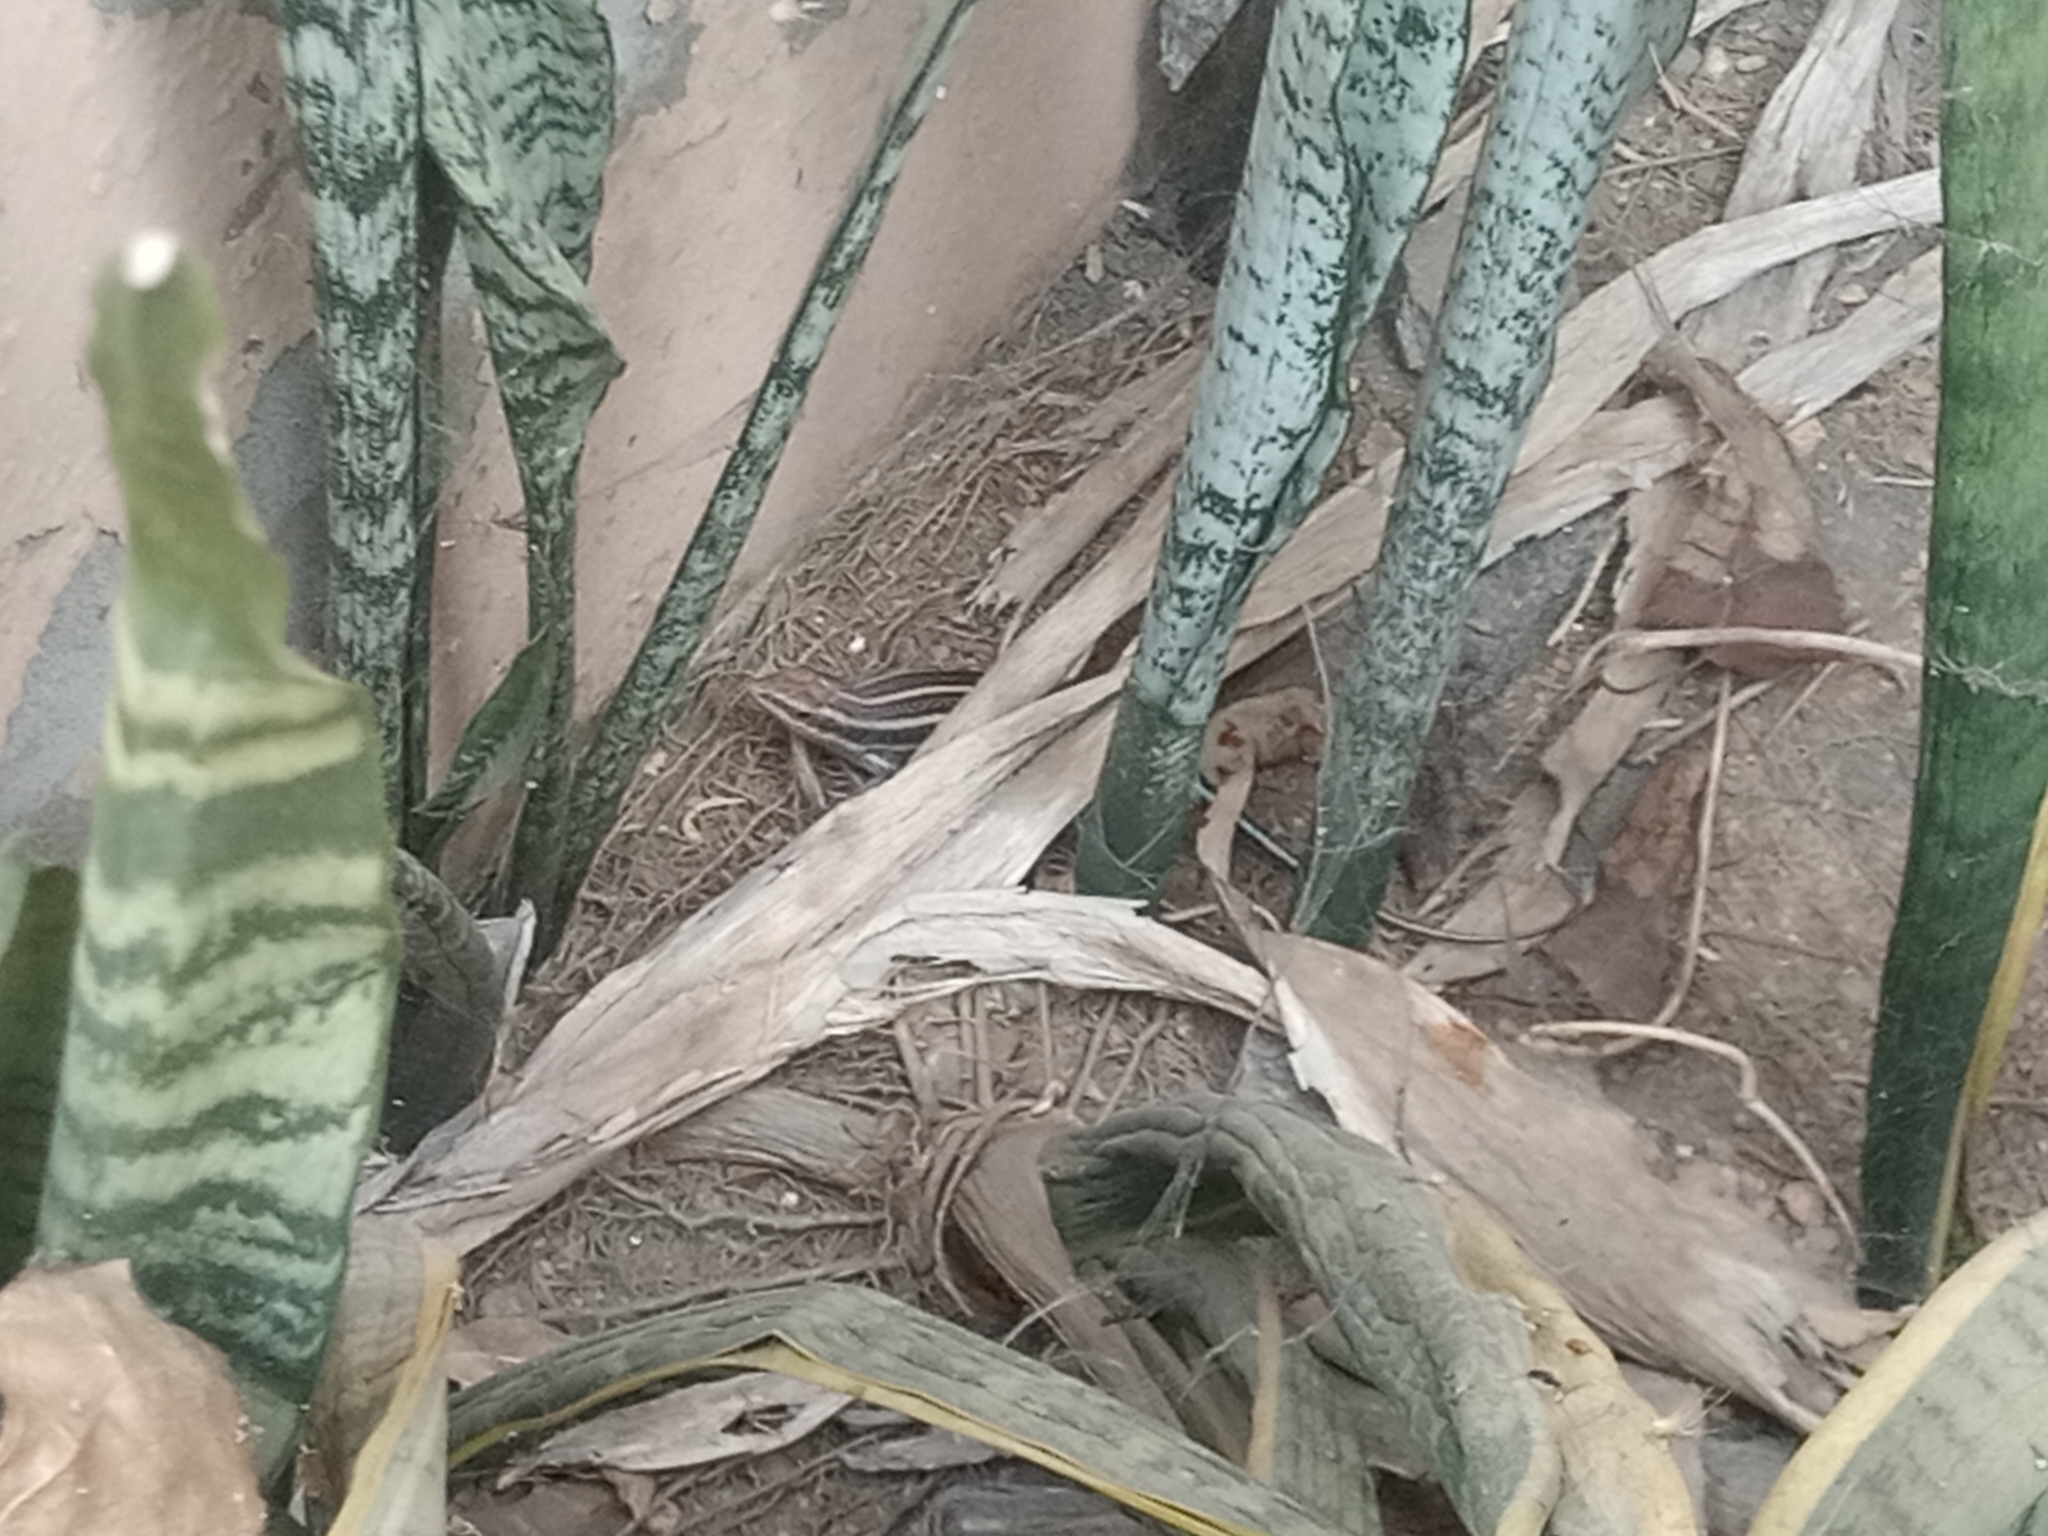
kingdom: Animalia
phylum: Chordata
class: Squamata
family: Scincidae
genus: Trachylepis
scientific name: Trachylepis quinquetaeniata
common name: African five-lined skink
